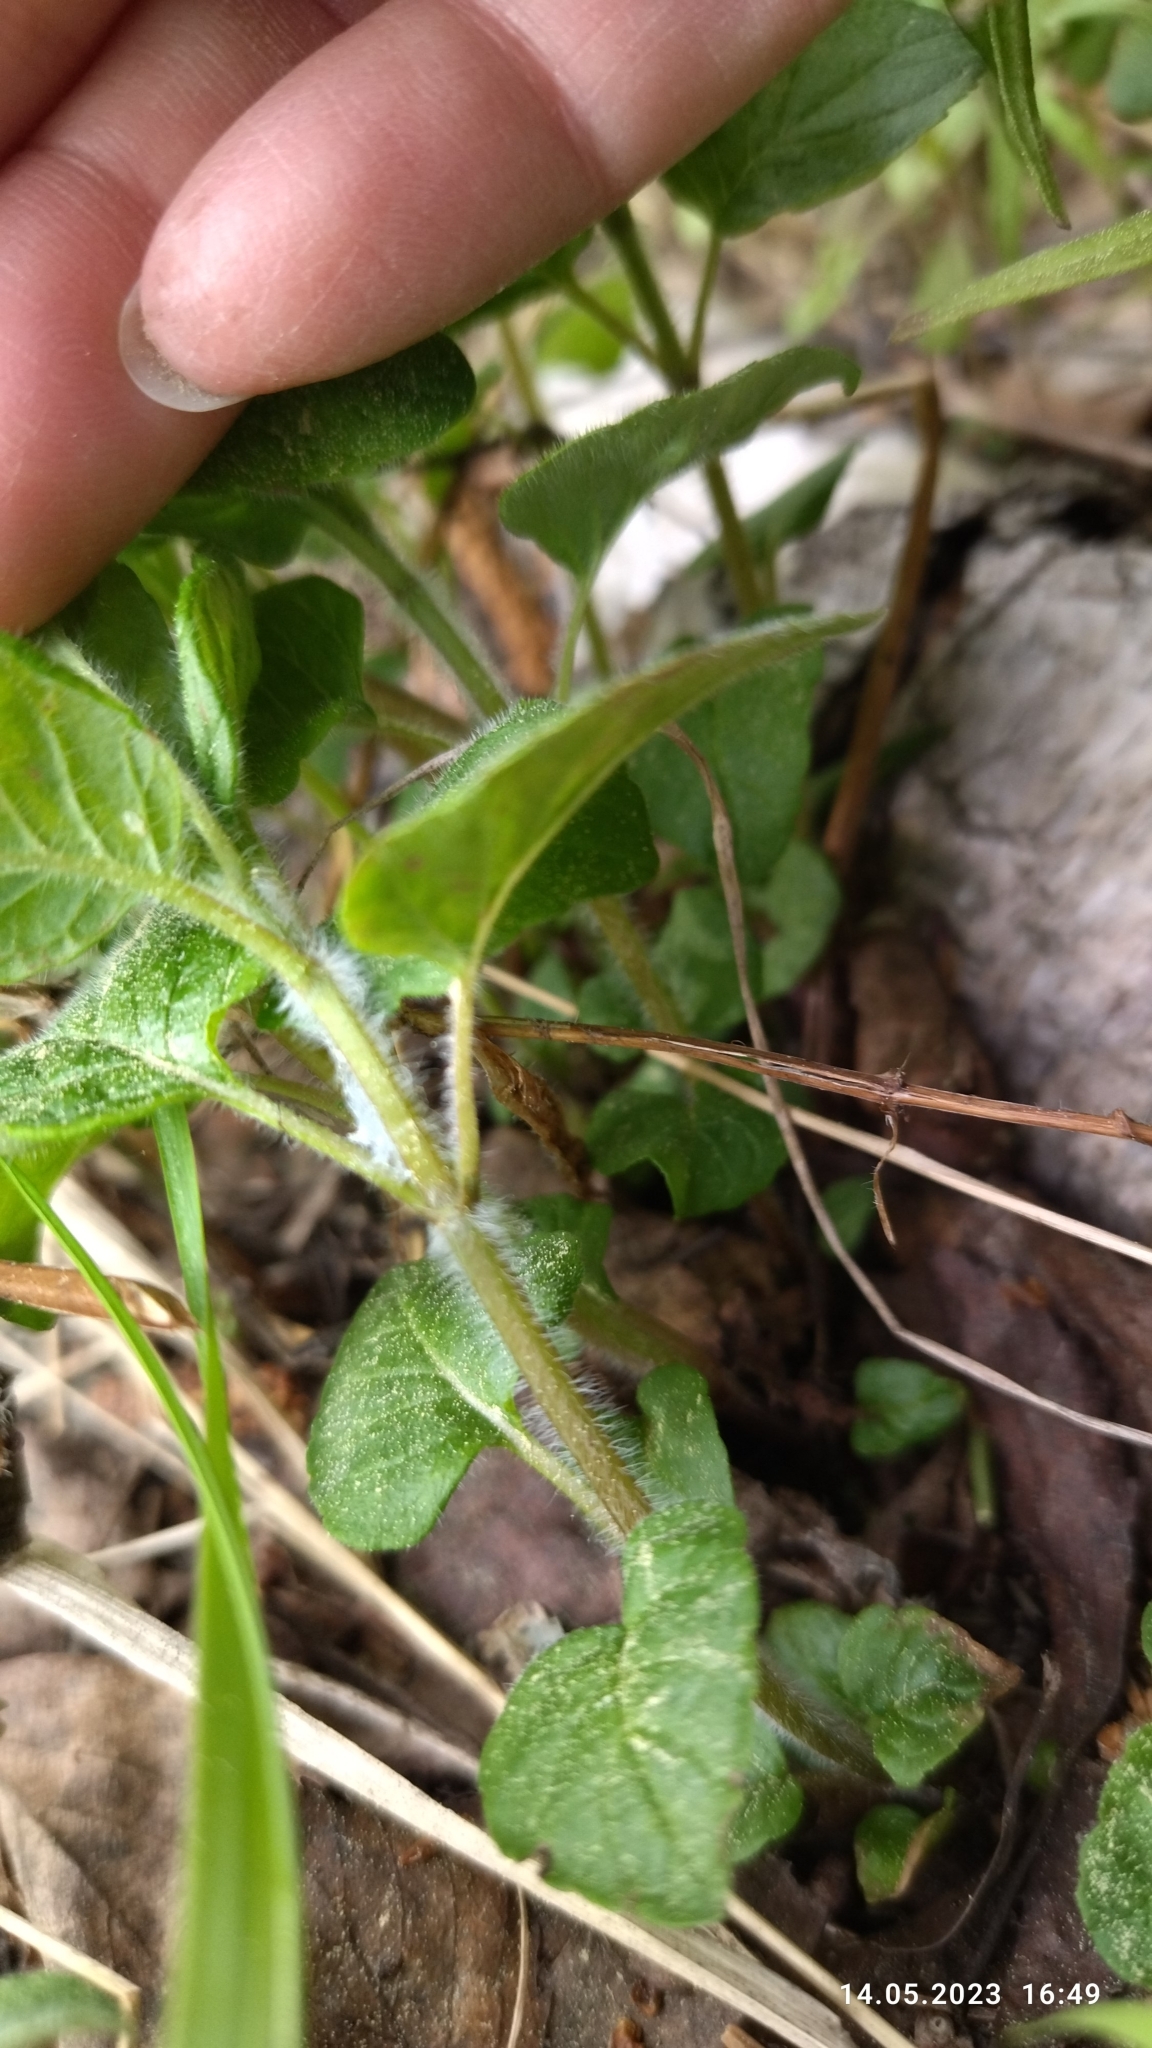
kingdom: Plantae
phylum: Tracheophyta
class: Magnoliopsida
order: Lamiales
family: Lamiaceae
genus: Clinopodium
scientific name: Clinopodium vulgare
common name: Wild basil
